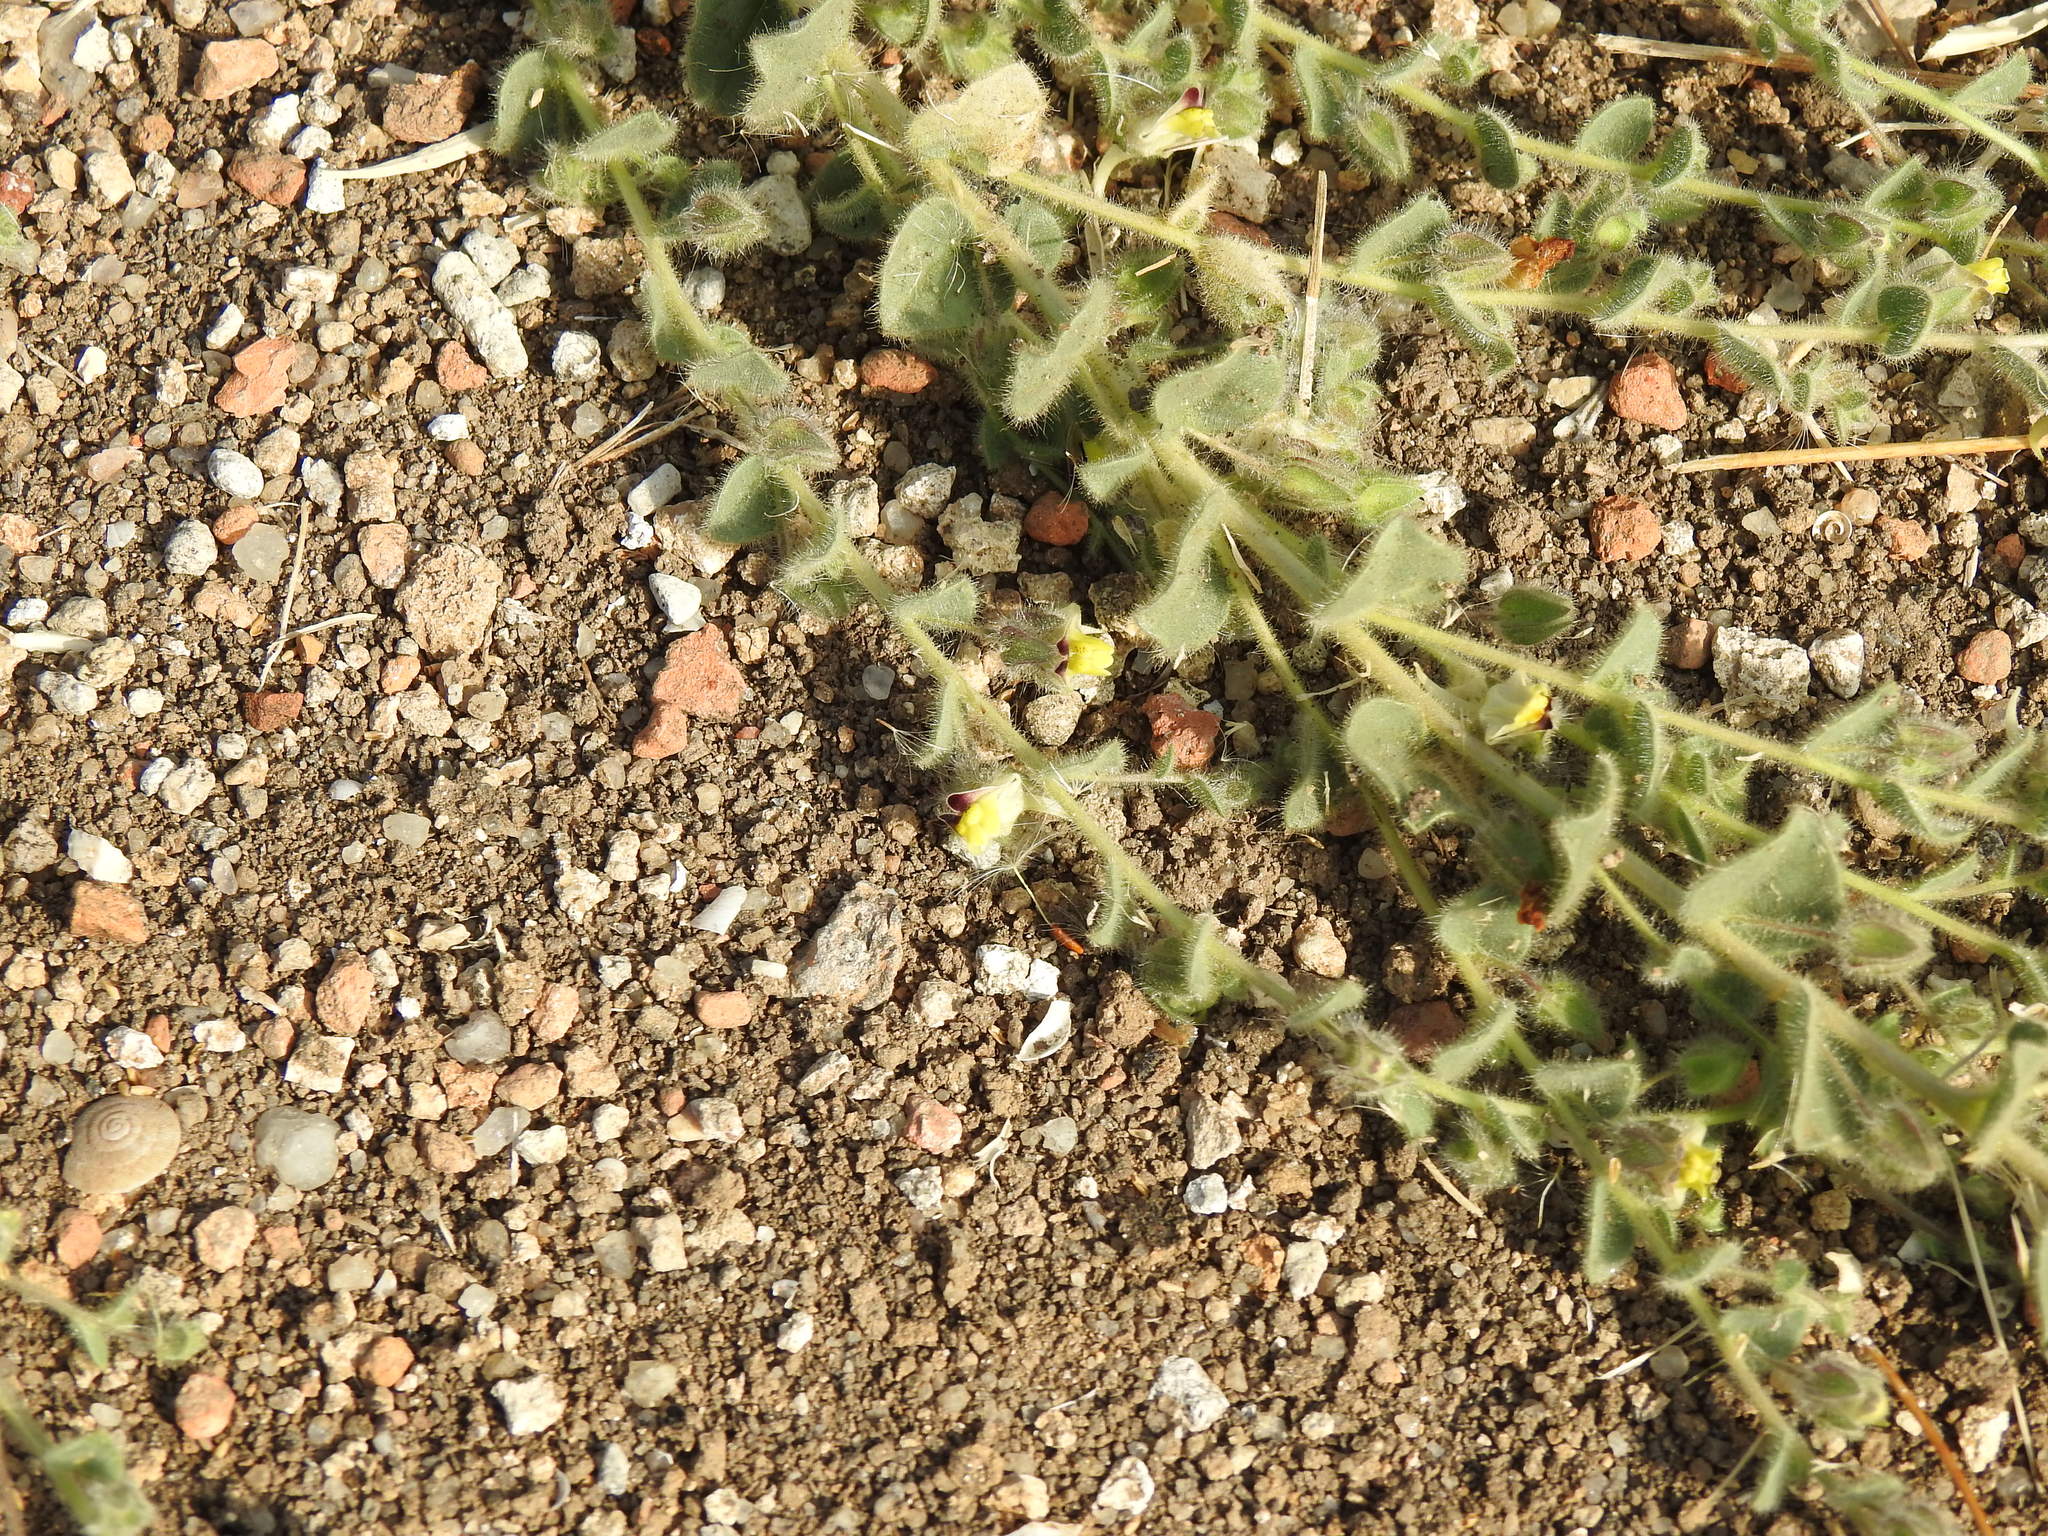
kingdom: Plantae
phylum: Tracheophyta
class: Magnoliopsida
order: Lamiales
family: Plantaginaceae
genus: Kickxia
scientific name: Kickxia spuria
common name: Round-leaved fluellen
